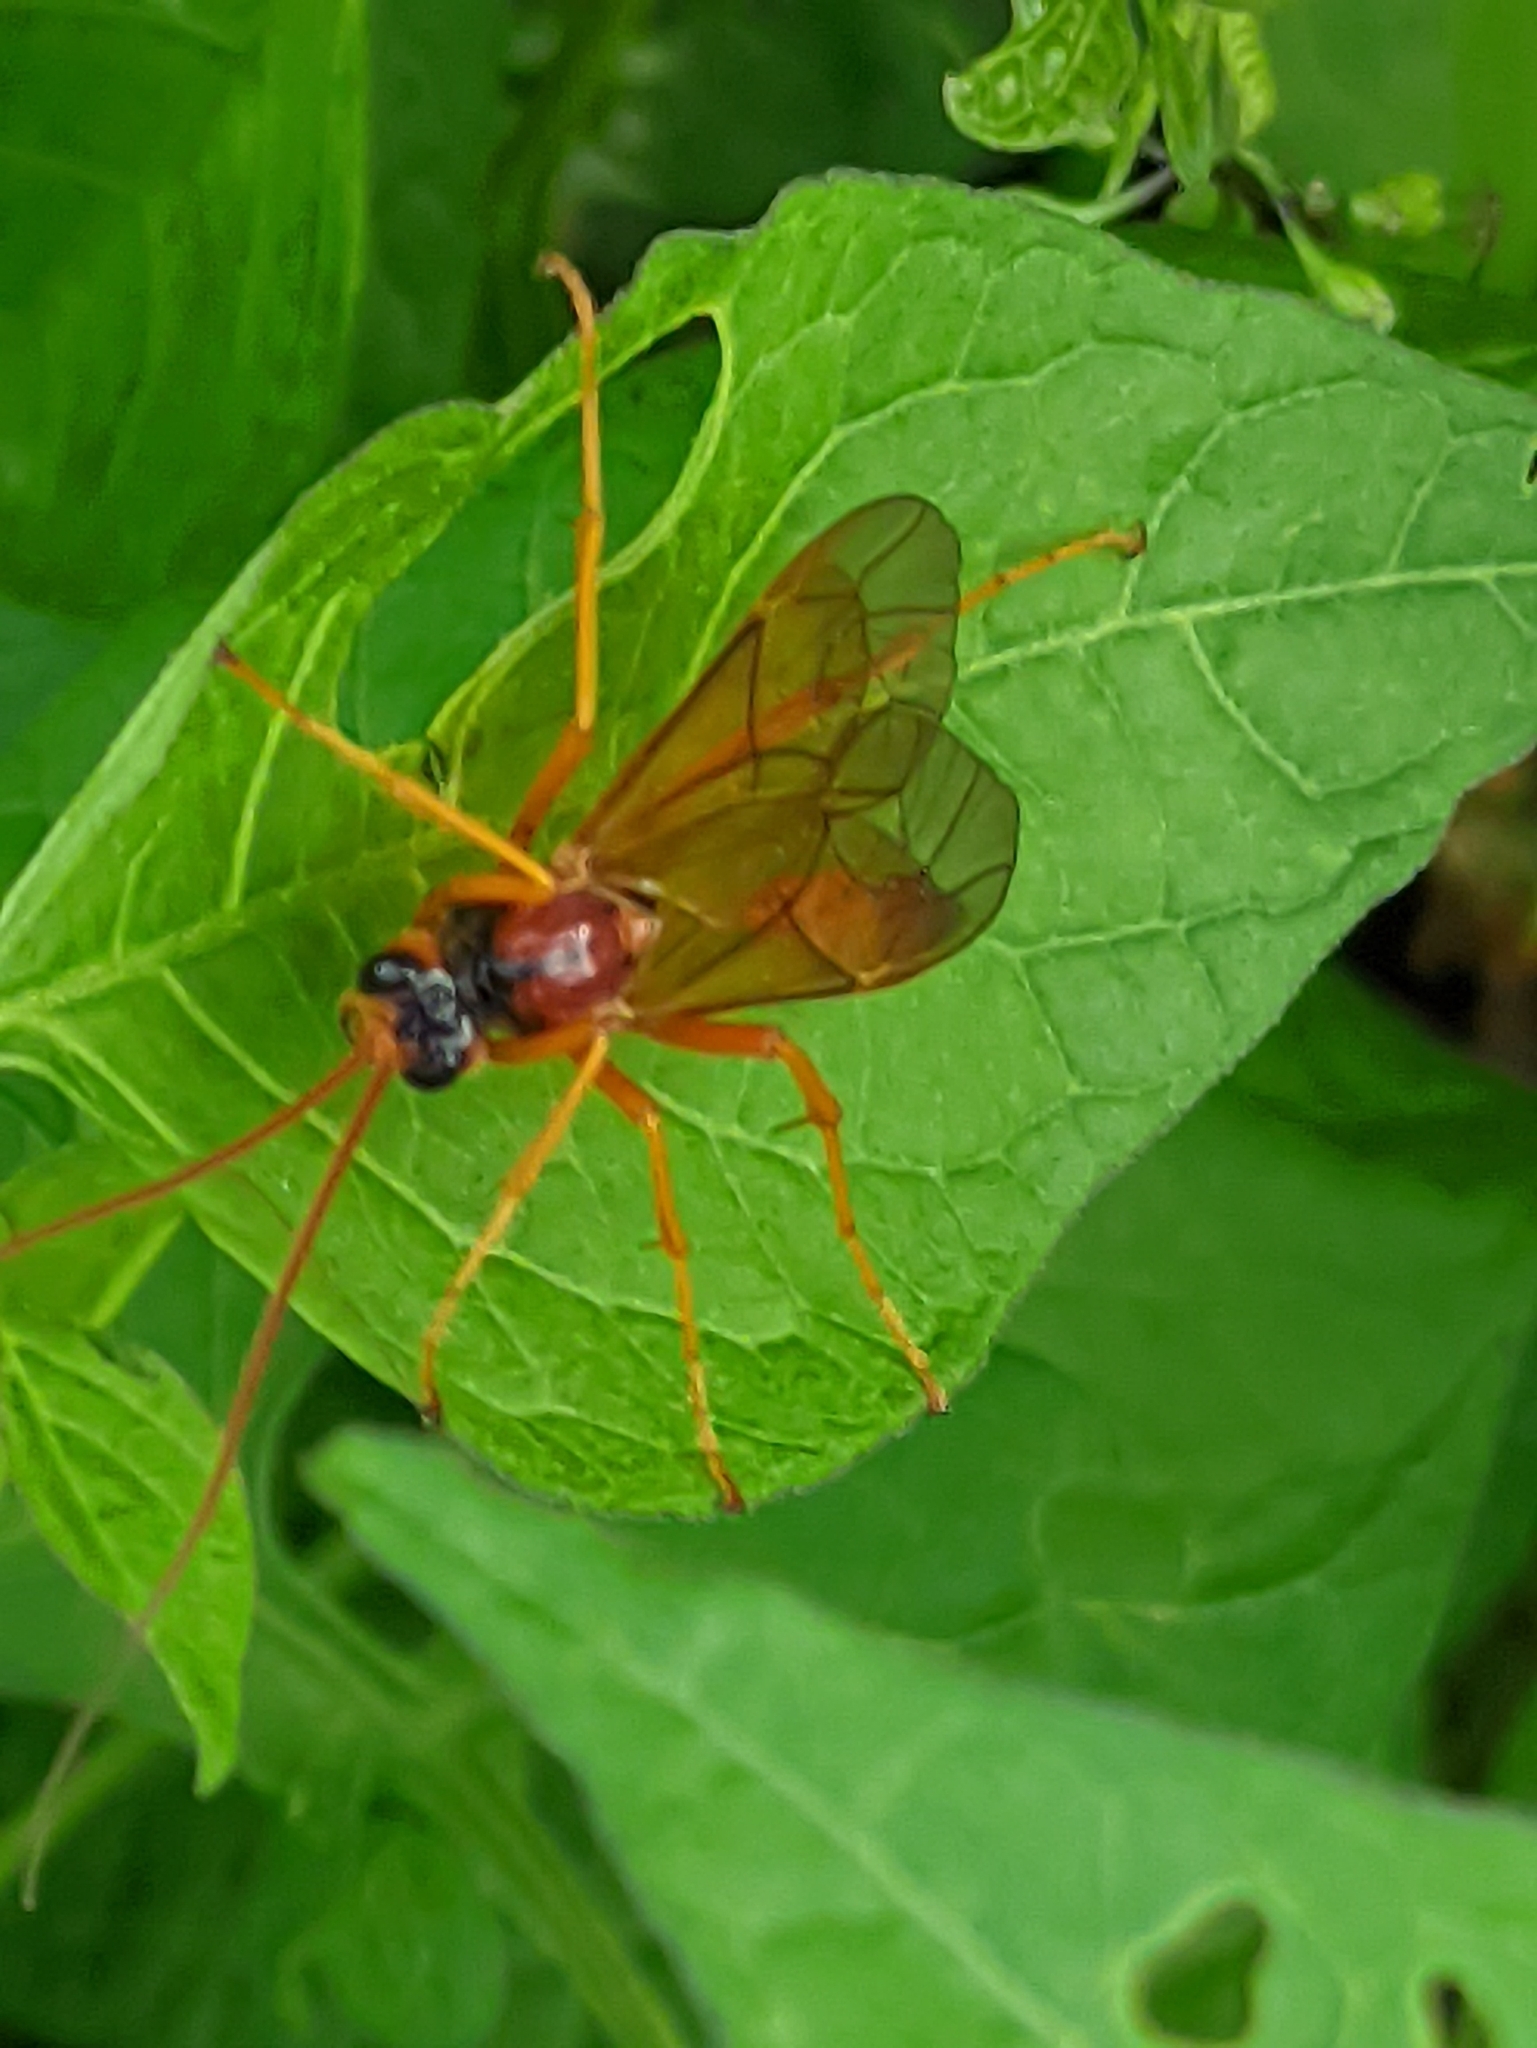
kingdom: Animalia
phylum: Arthropoda
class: Insecta
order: Hymenoptera
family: Ichneumonidae
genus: Opheltes
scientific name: Opheltes glaucopterus
